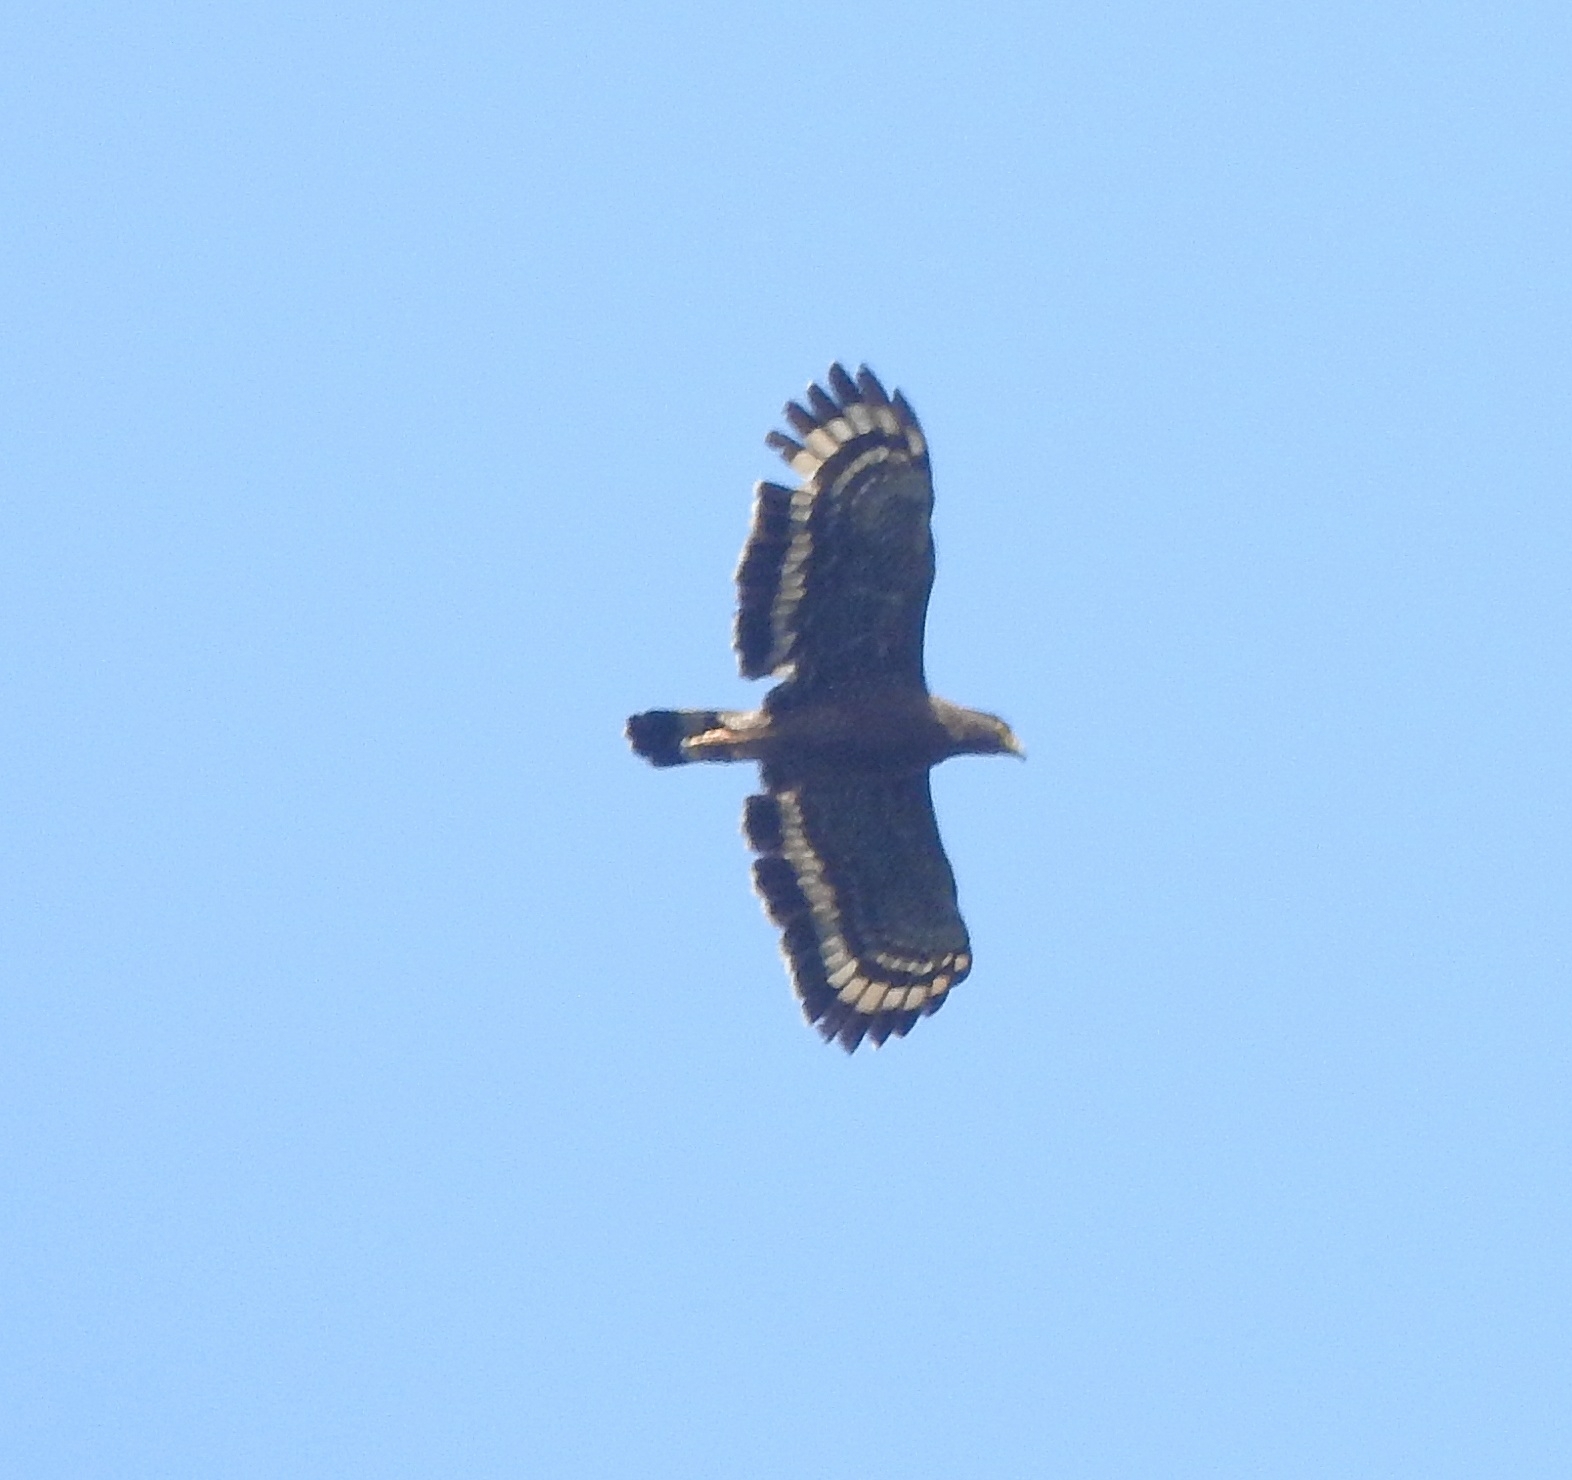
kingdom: Animalia
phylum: Chordata
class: Aves
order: Accipitriformes
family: Accipitridae
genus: Spilornis
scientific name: Spilornis cheela
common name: Crested serpent eagle
